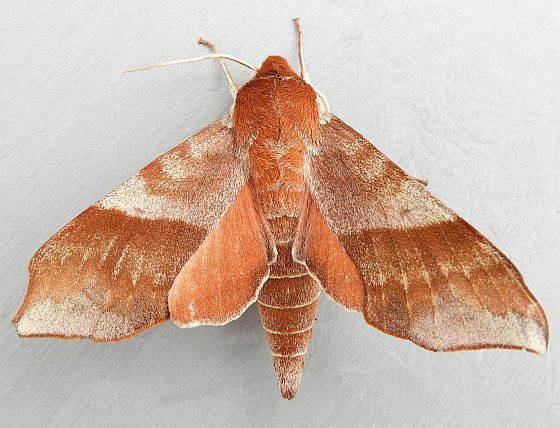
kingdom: Animalia
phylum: Arthropoda
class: Insecta
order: Lepidoptera
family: Sphingidae
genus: Darapsa
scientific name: Darapsa choerilus
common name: Azalea sphinx
